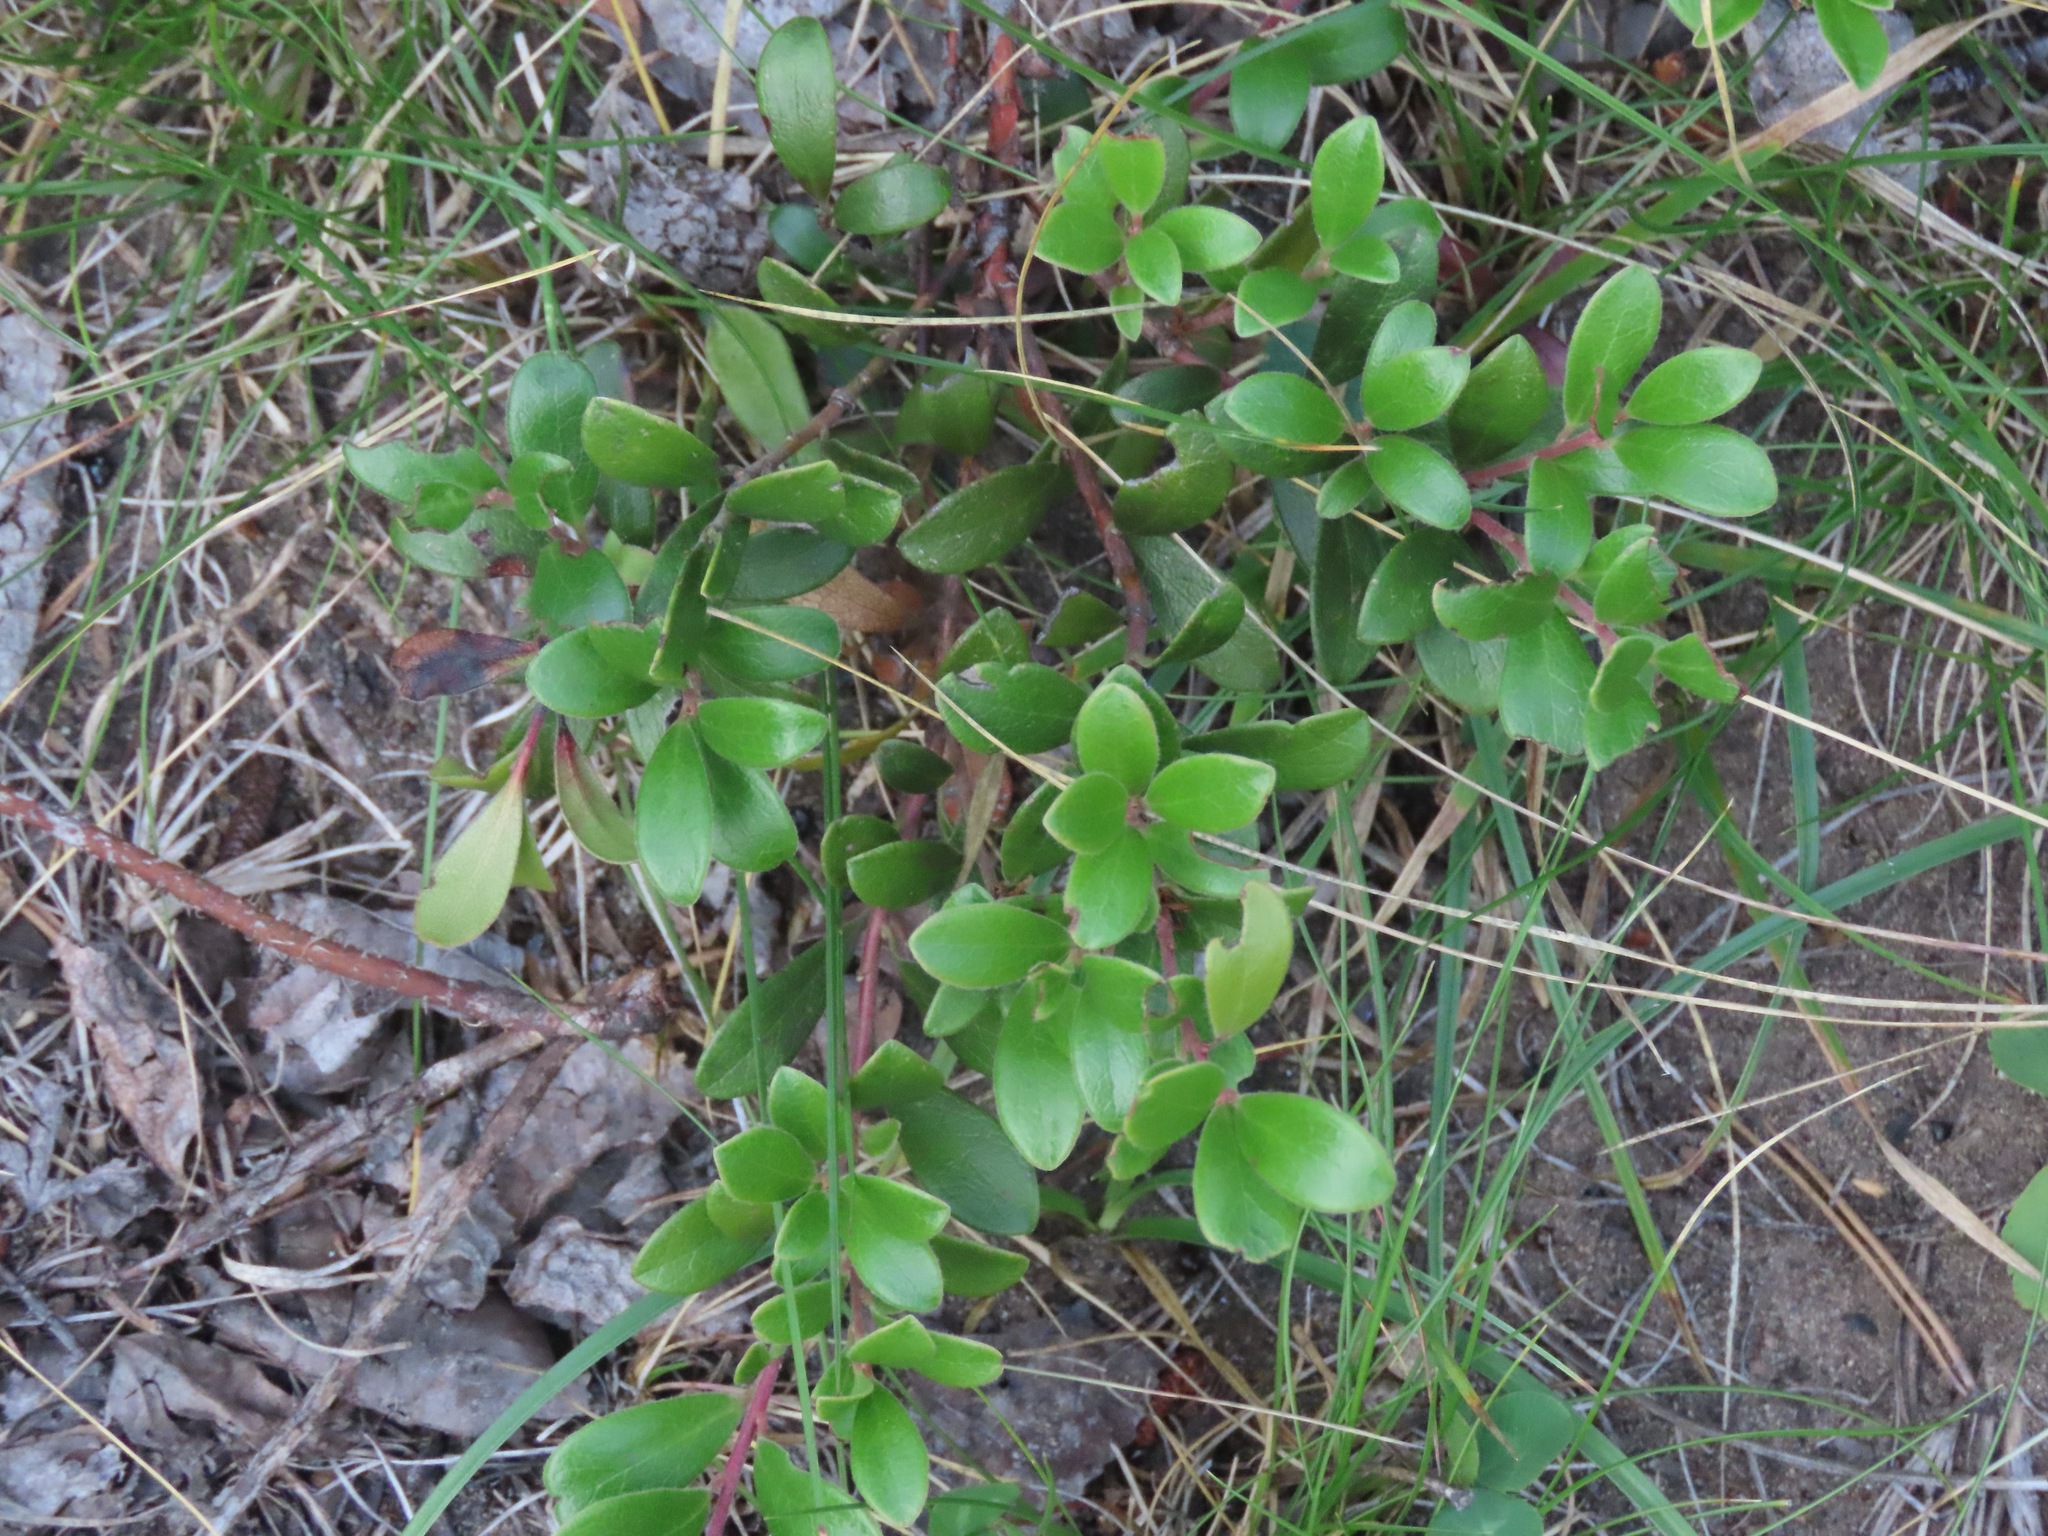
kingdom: Plantae
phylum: Tracheophyta
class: Magnoliopsida
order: Ericales
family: Ericaceae
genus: Arctostaphylos
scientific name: Arctostaphylos uva-ursi
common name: Bearberry
